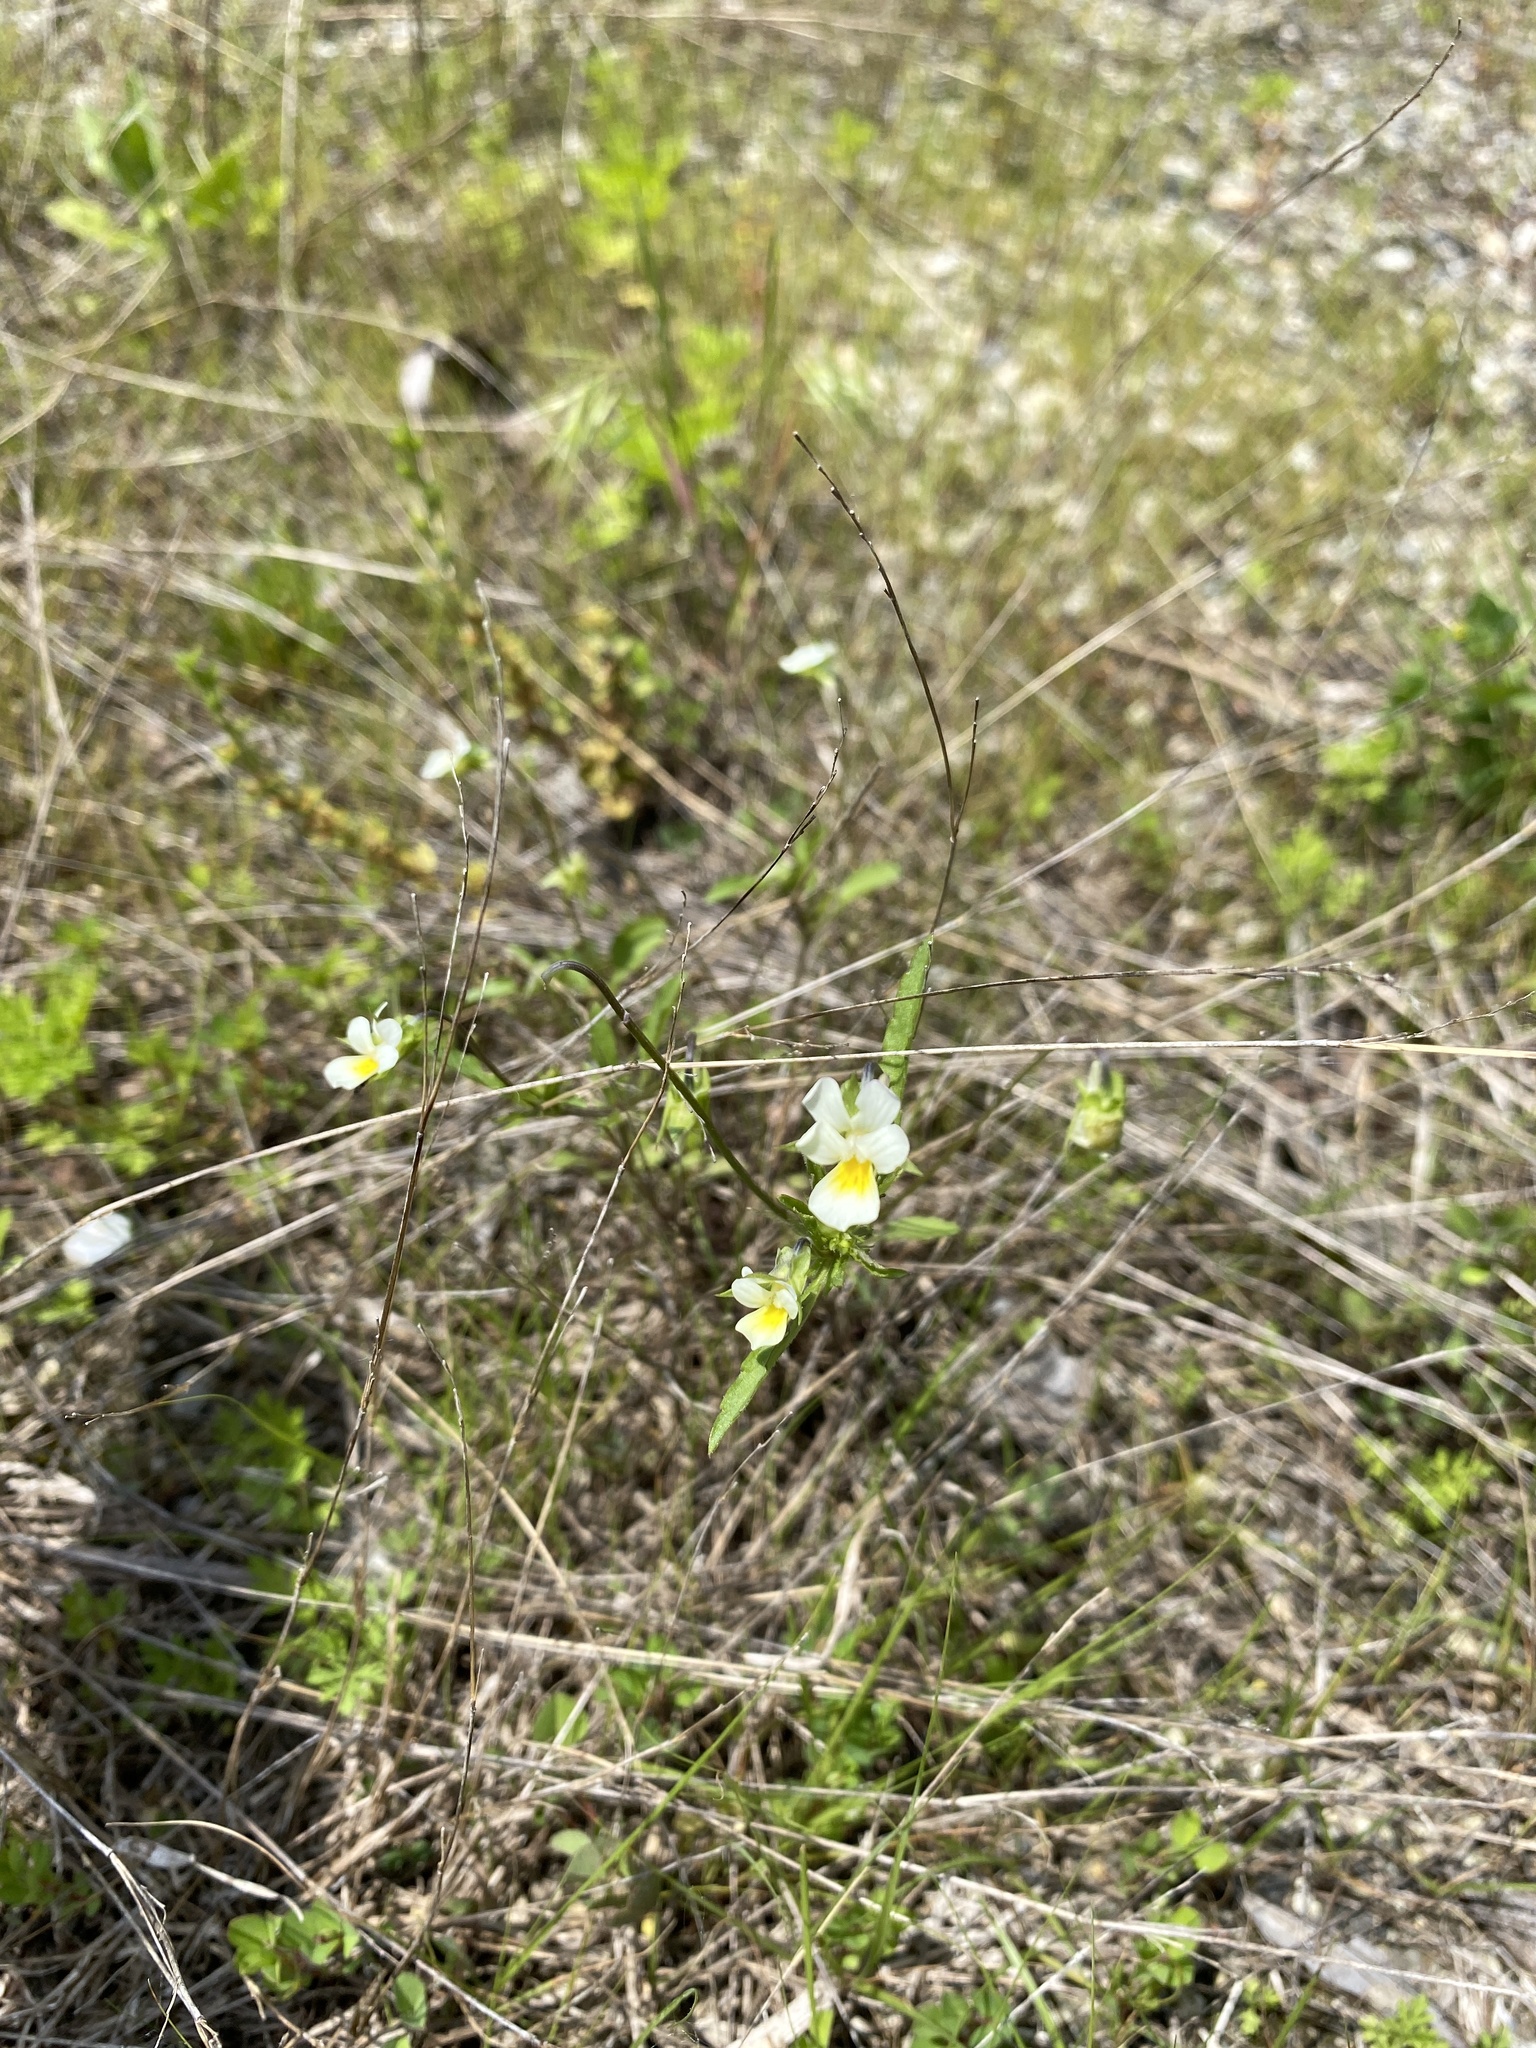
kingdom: Plantae
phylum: Tracheophyta
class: Magnoliopsida
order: Malpighiales
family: Violaceae
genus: Viola
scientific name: Viola arvensis
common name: Field pansy
